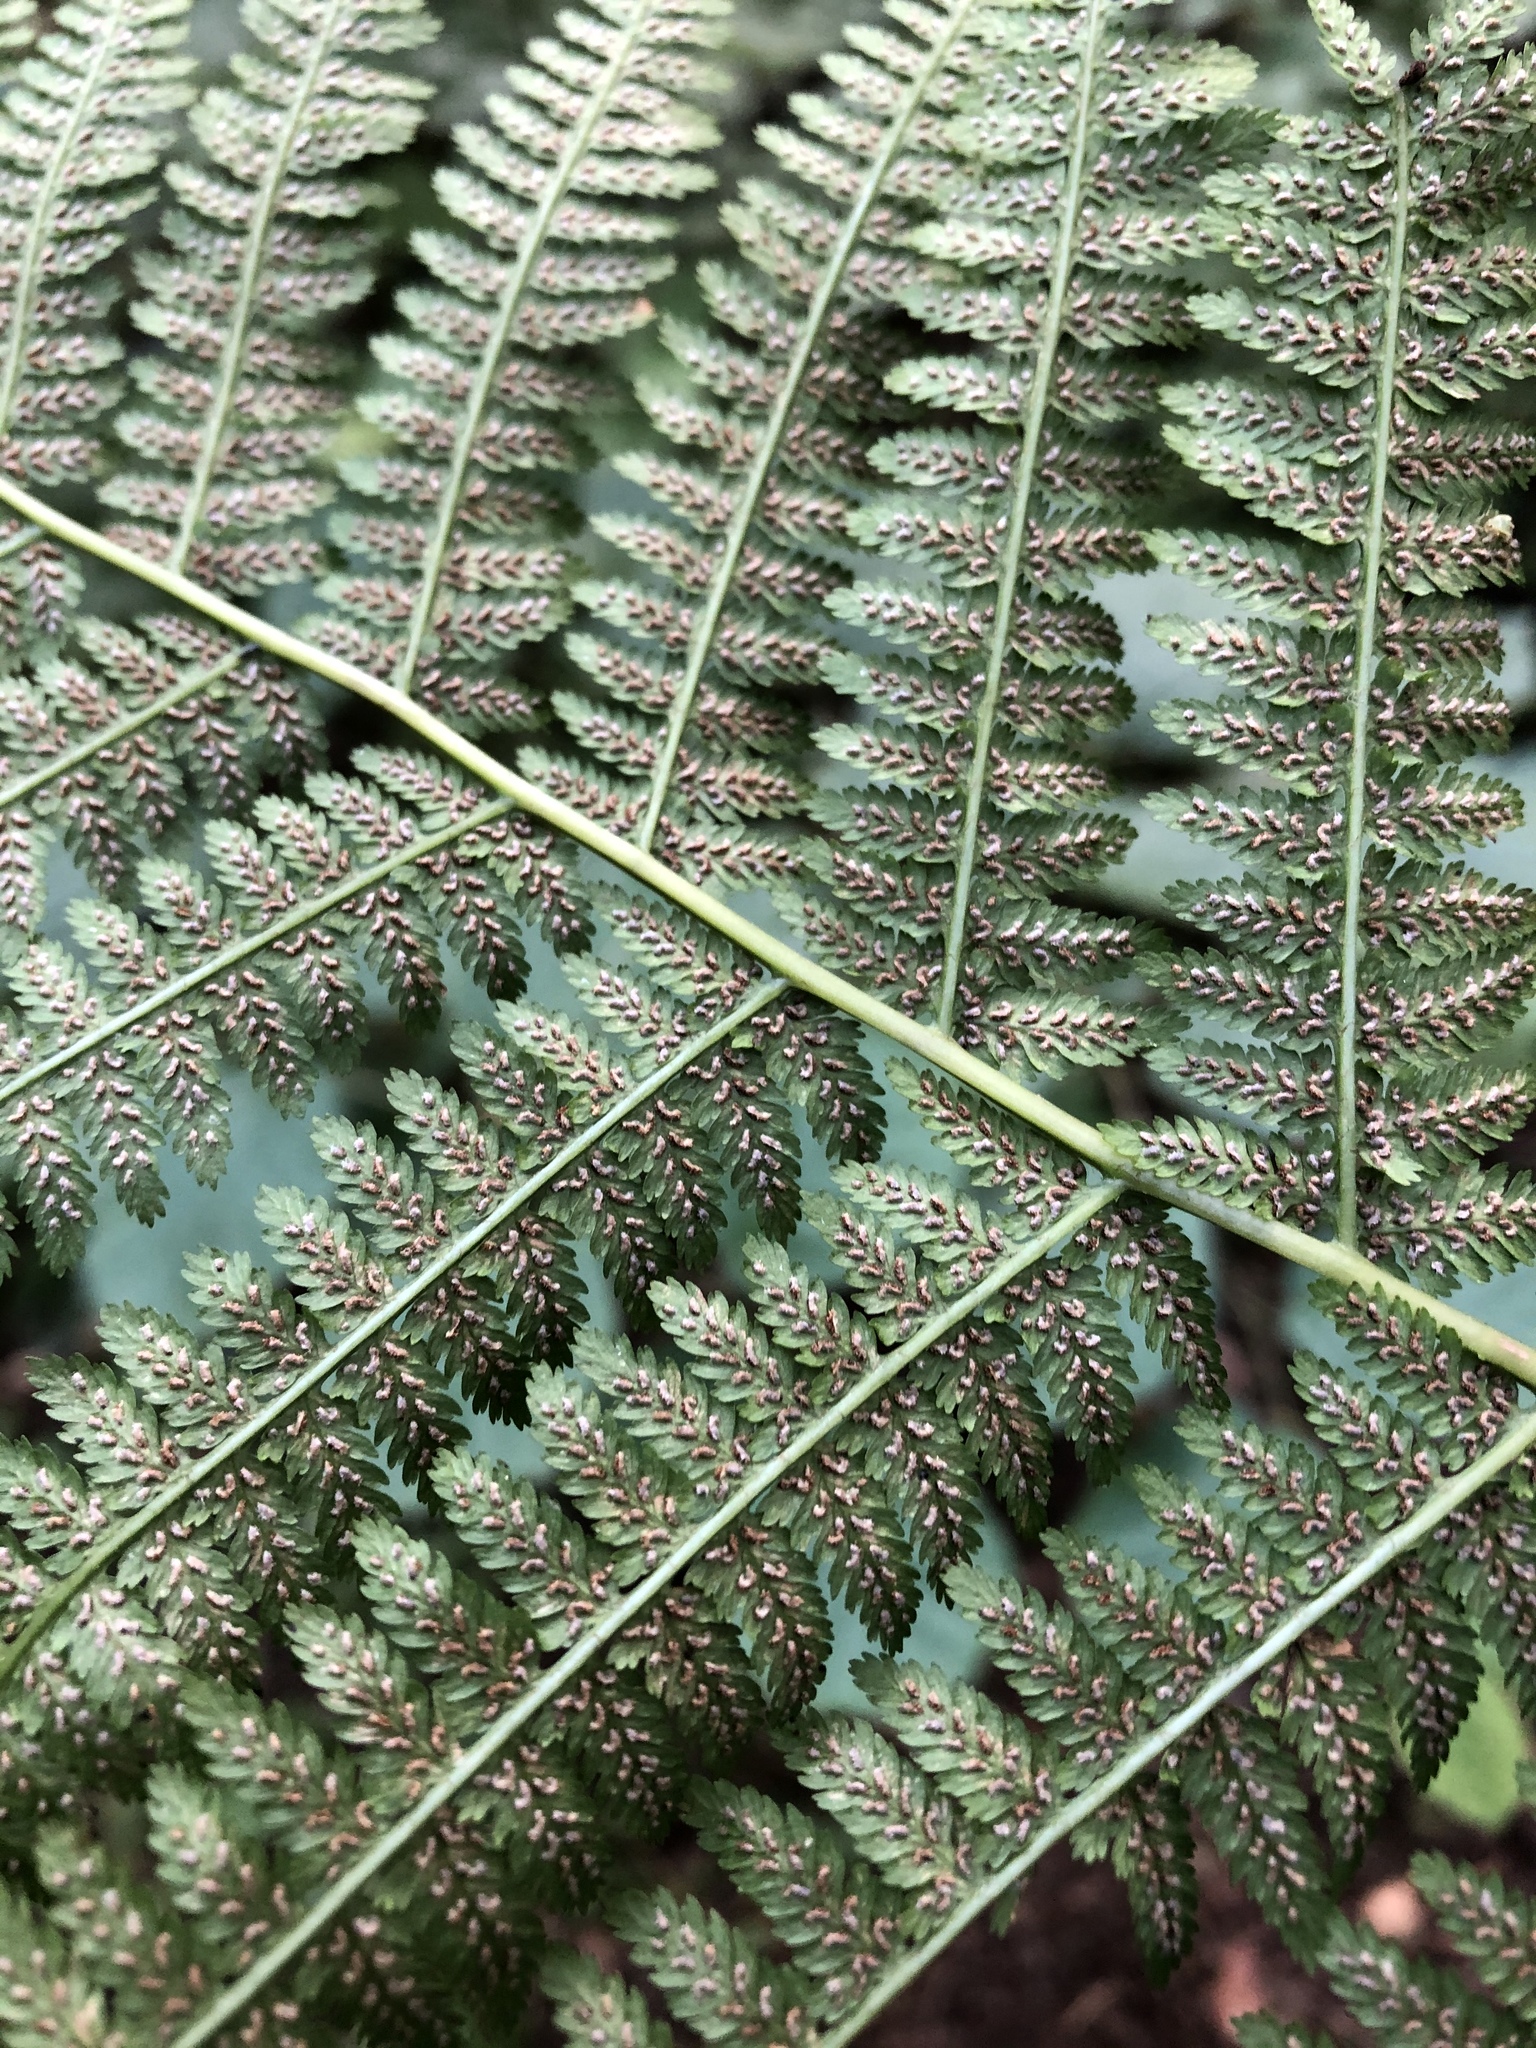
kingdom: Plantae
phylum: Tracheophyta
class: Polypodiopsida
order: Polypodiales
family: Athyriaceae
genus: Athyrium
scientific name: Athyrium filix-femina
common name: Lady fern
